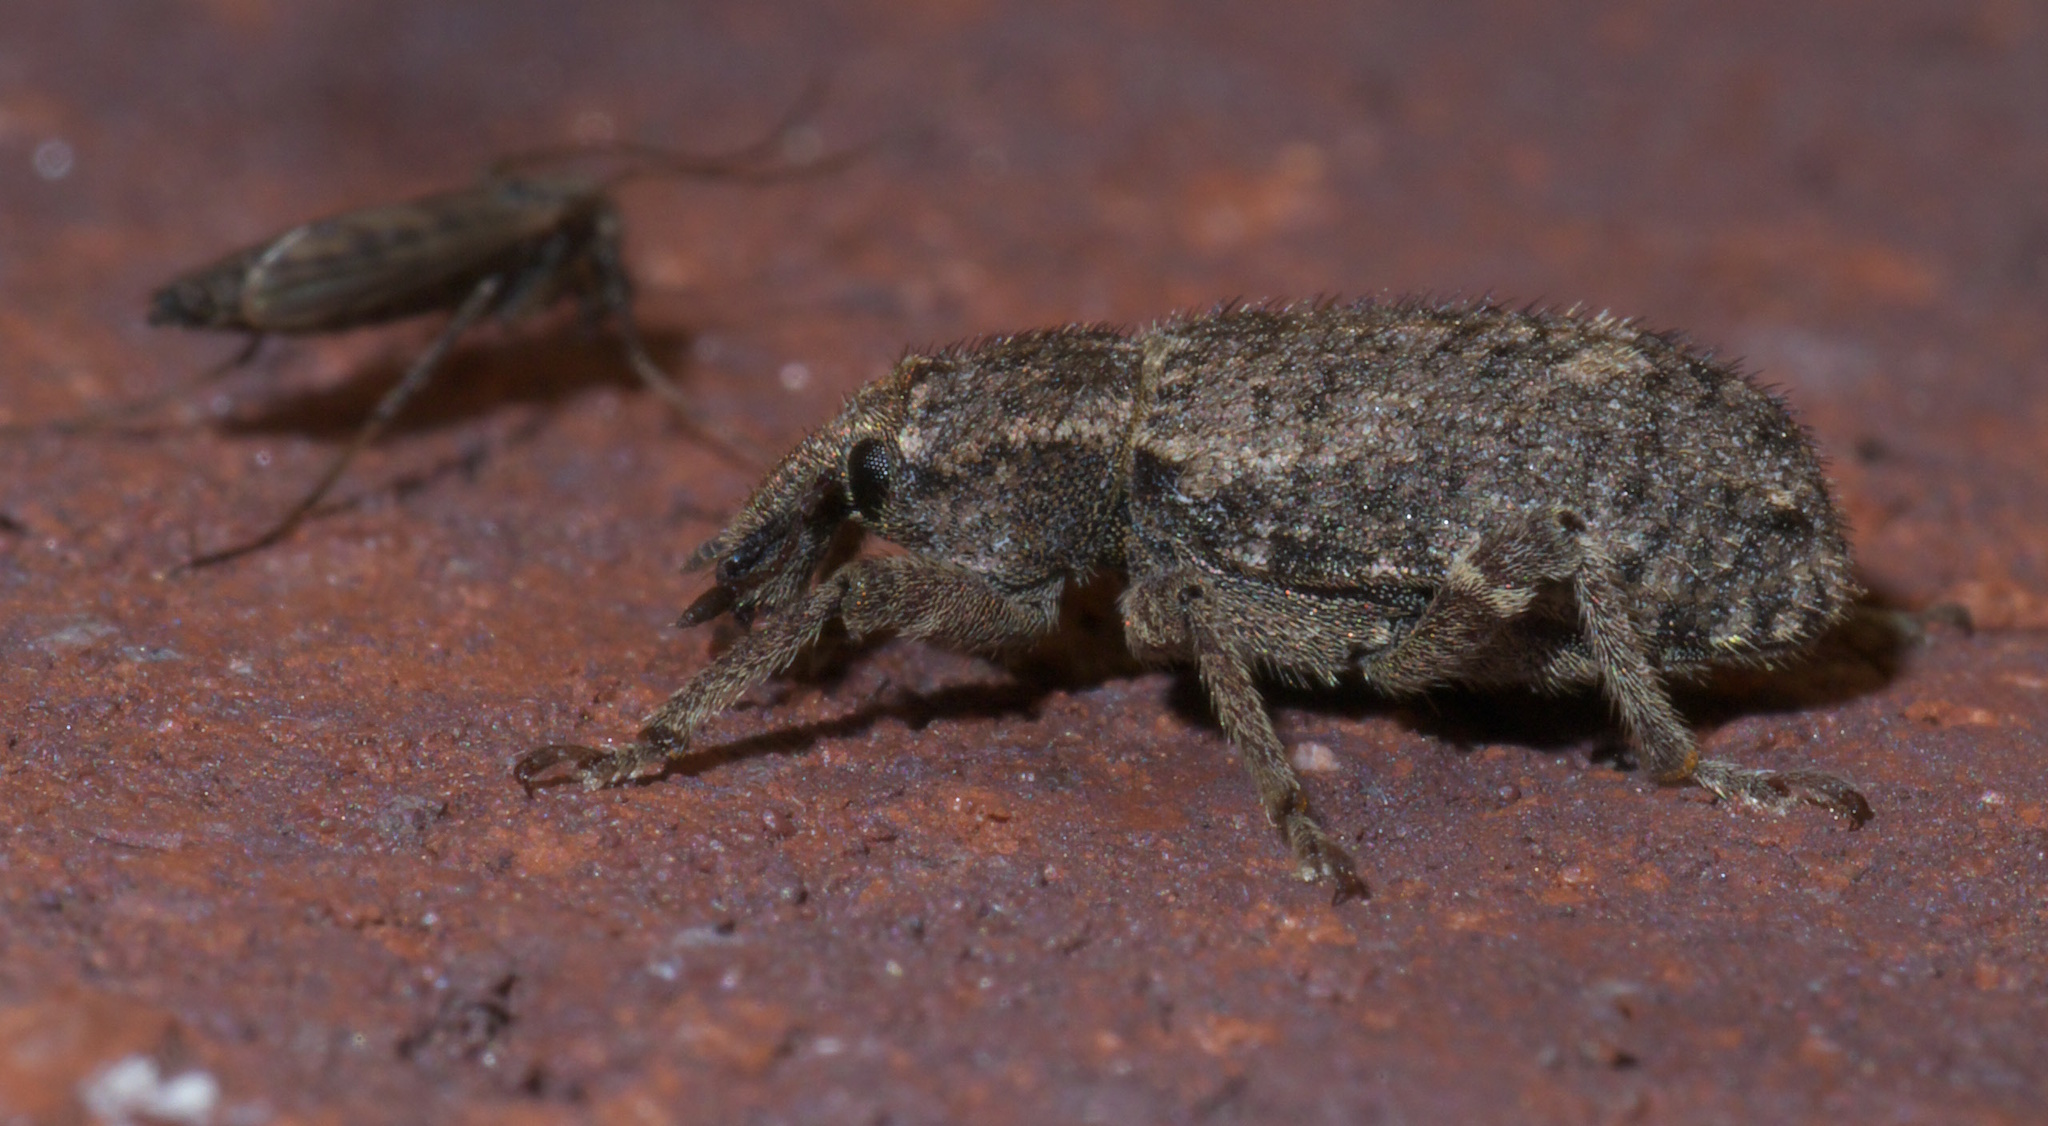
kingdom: Animalia
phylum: Arthropoda
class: Insecta
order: Coleoptera
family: Curculionidae
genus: Listroderes
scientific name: Listroderes costirostris
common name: Weevil
